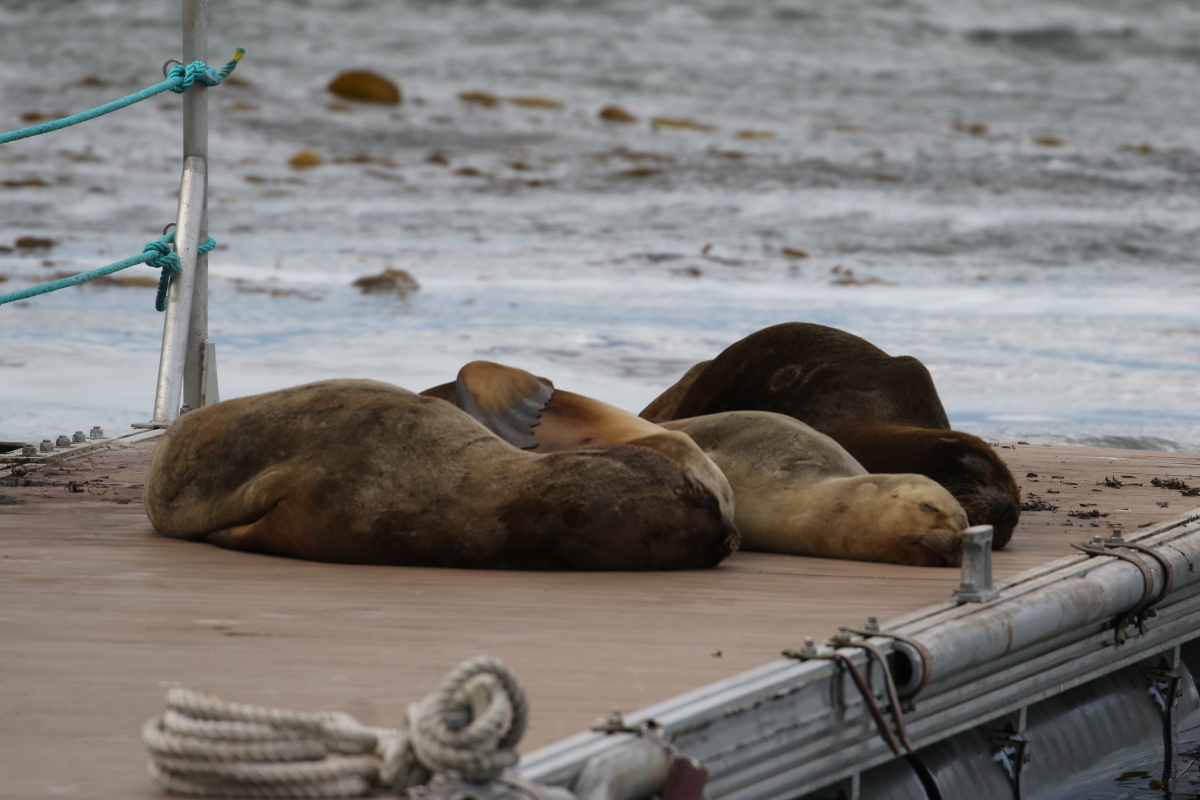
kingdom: Animalia
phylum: Chordata
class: Mammalia
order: Carnivora
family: Otariidae
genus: Otaria
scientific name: Otaria byronia
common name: South american sea lion
